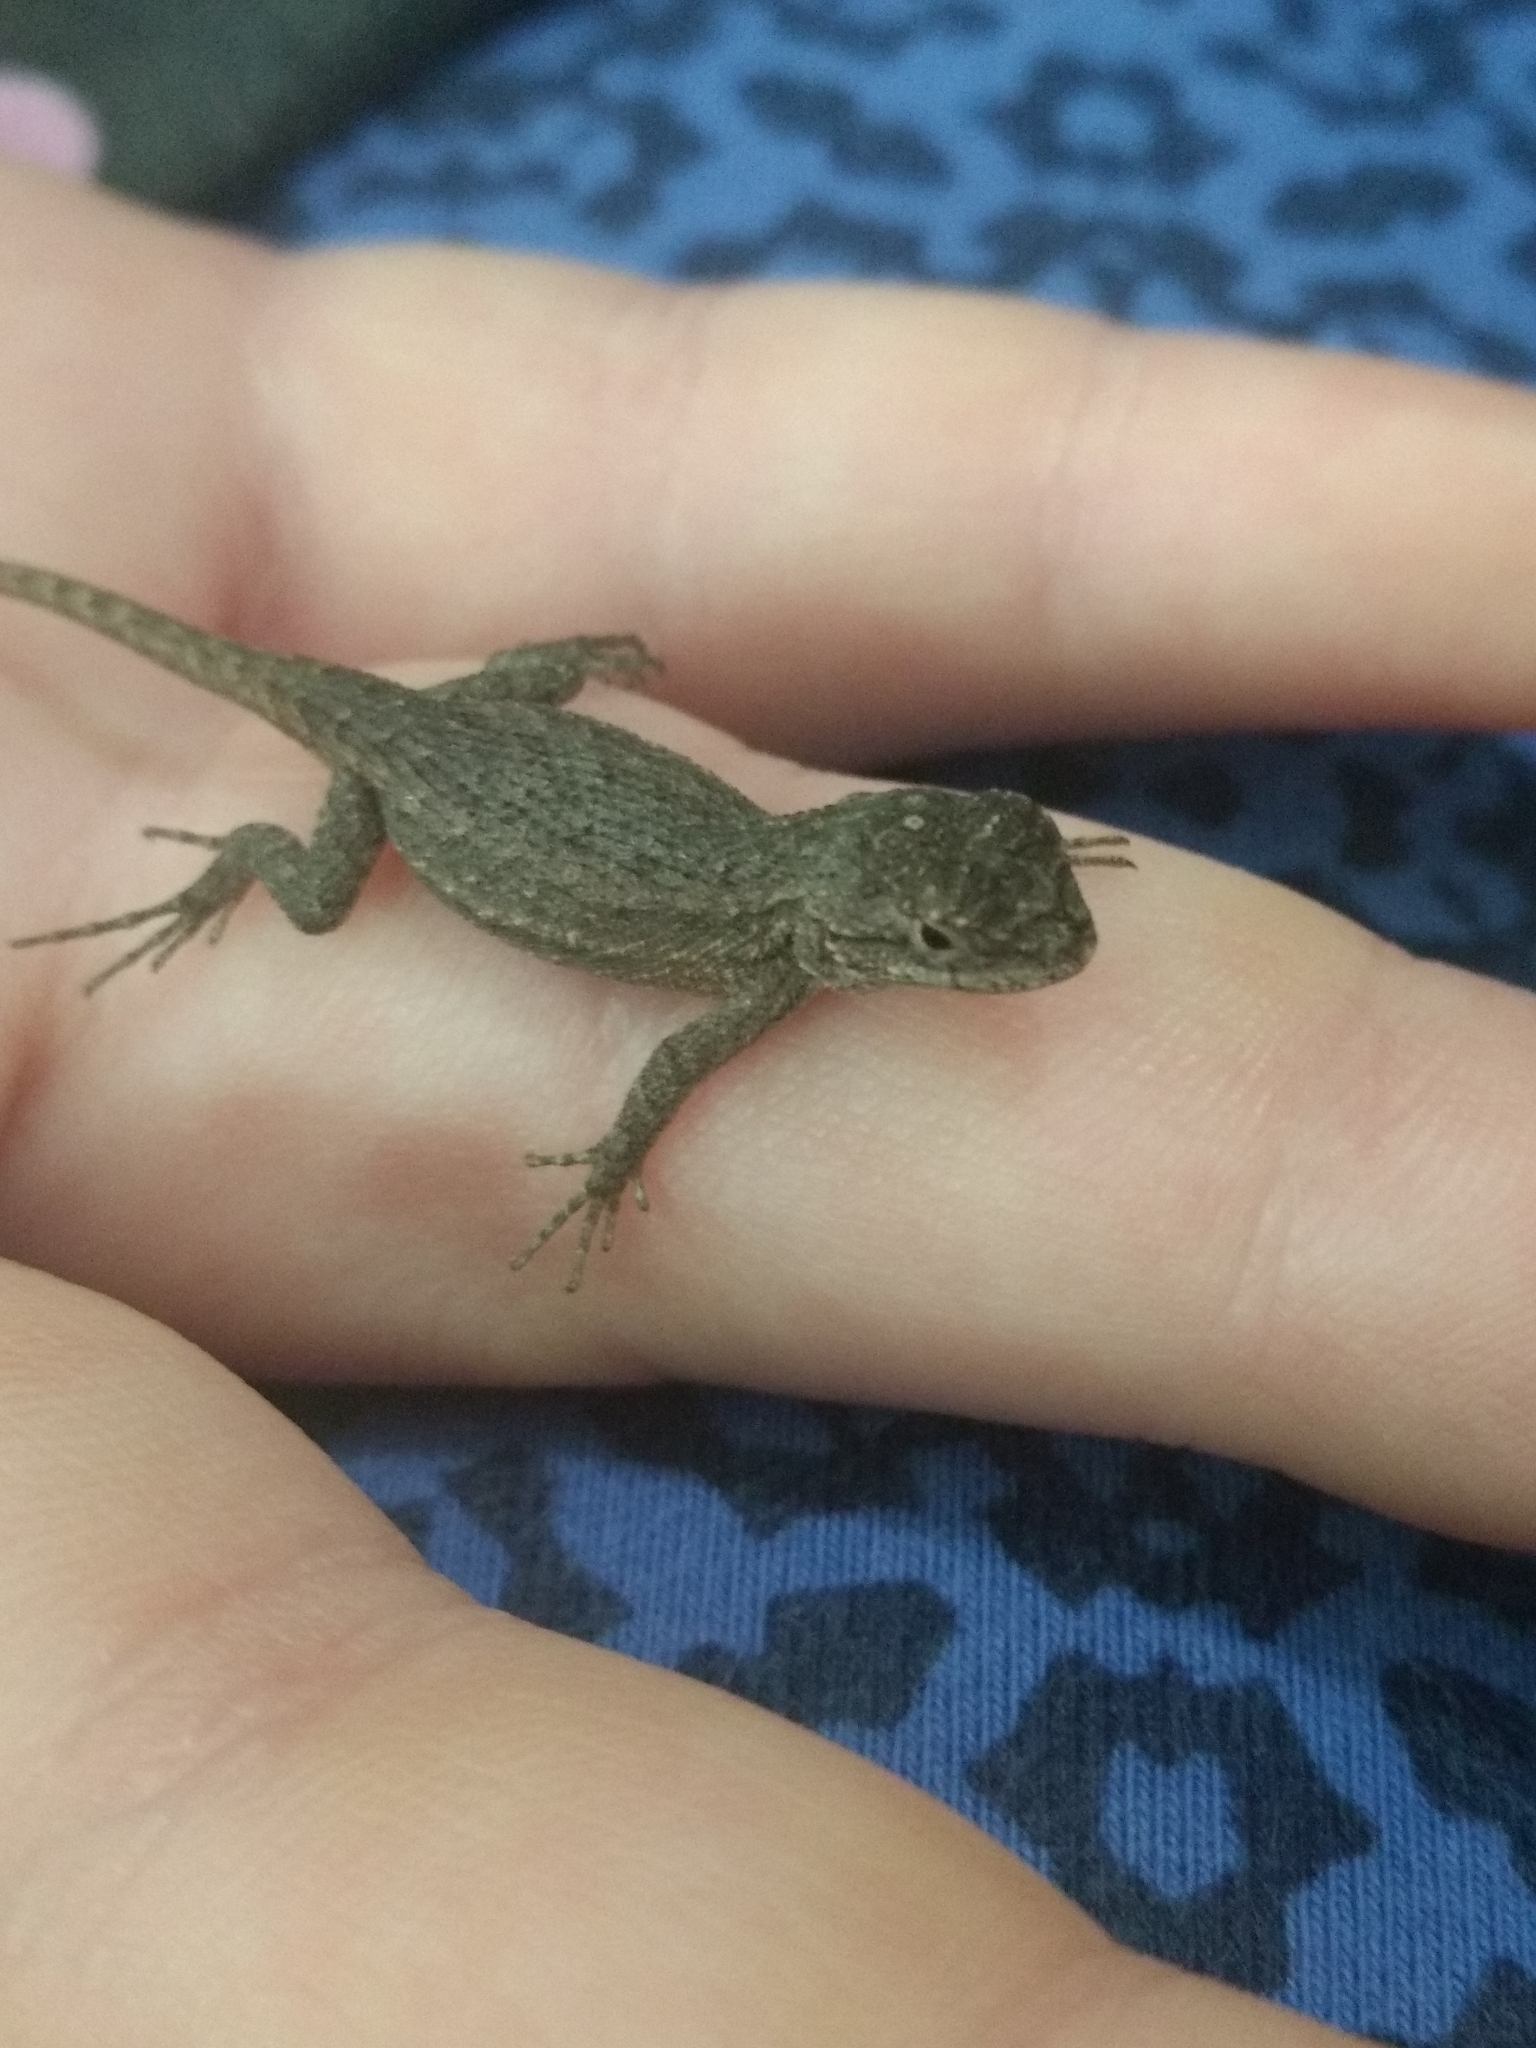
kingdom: Animalia
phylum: Chordata
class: Squamata
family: Phrynosomatidae
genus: Sceloporus
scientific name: Sceloporus occidentalis
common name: Western fence lizard
